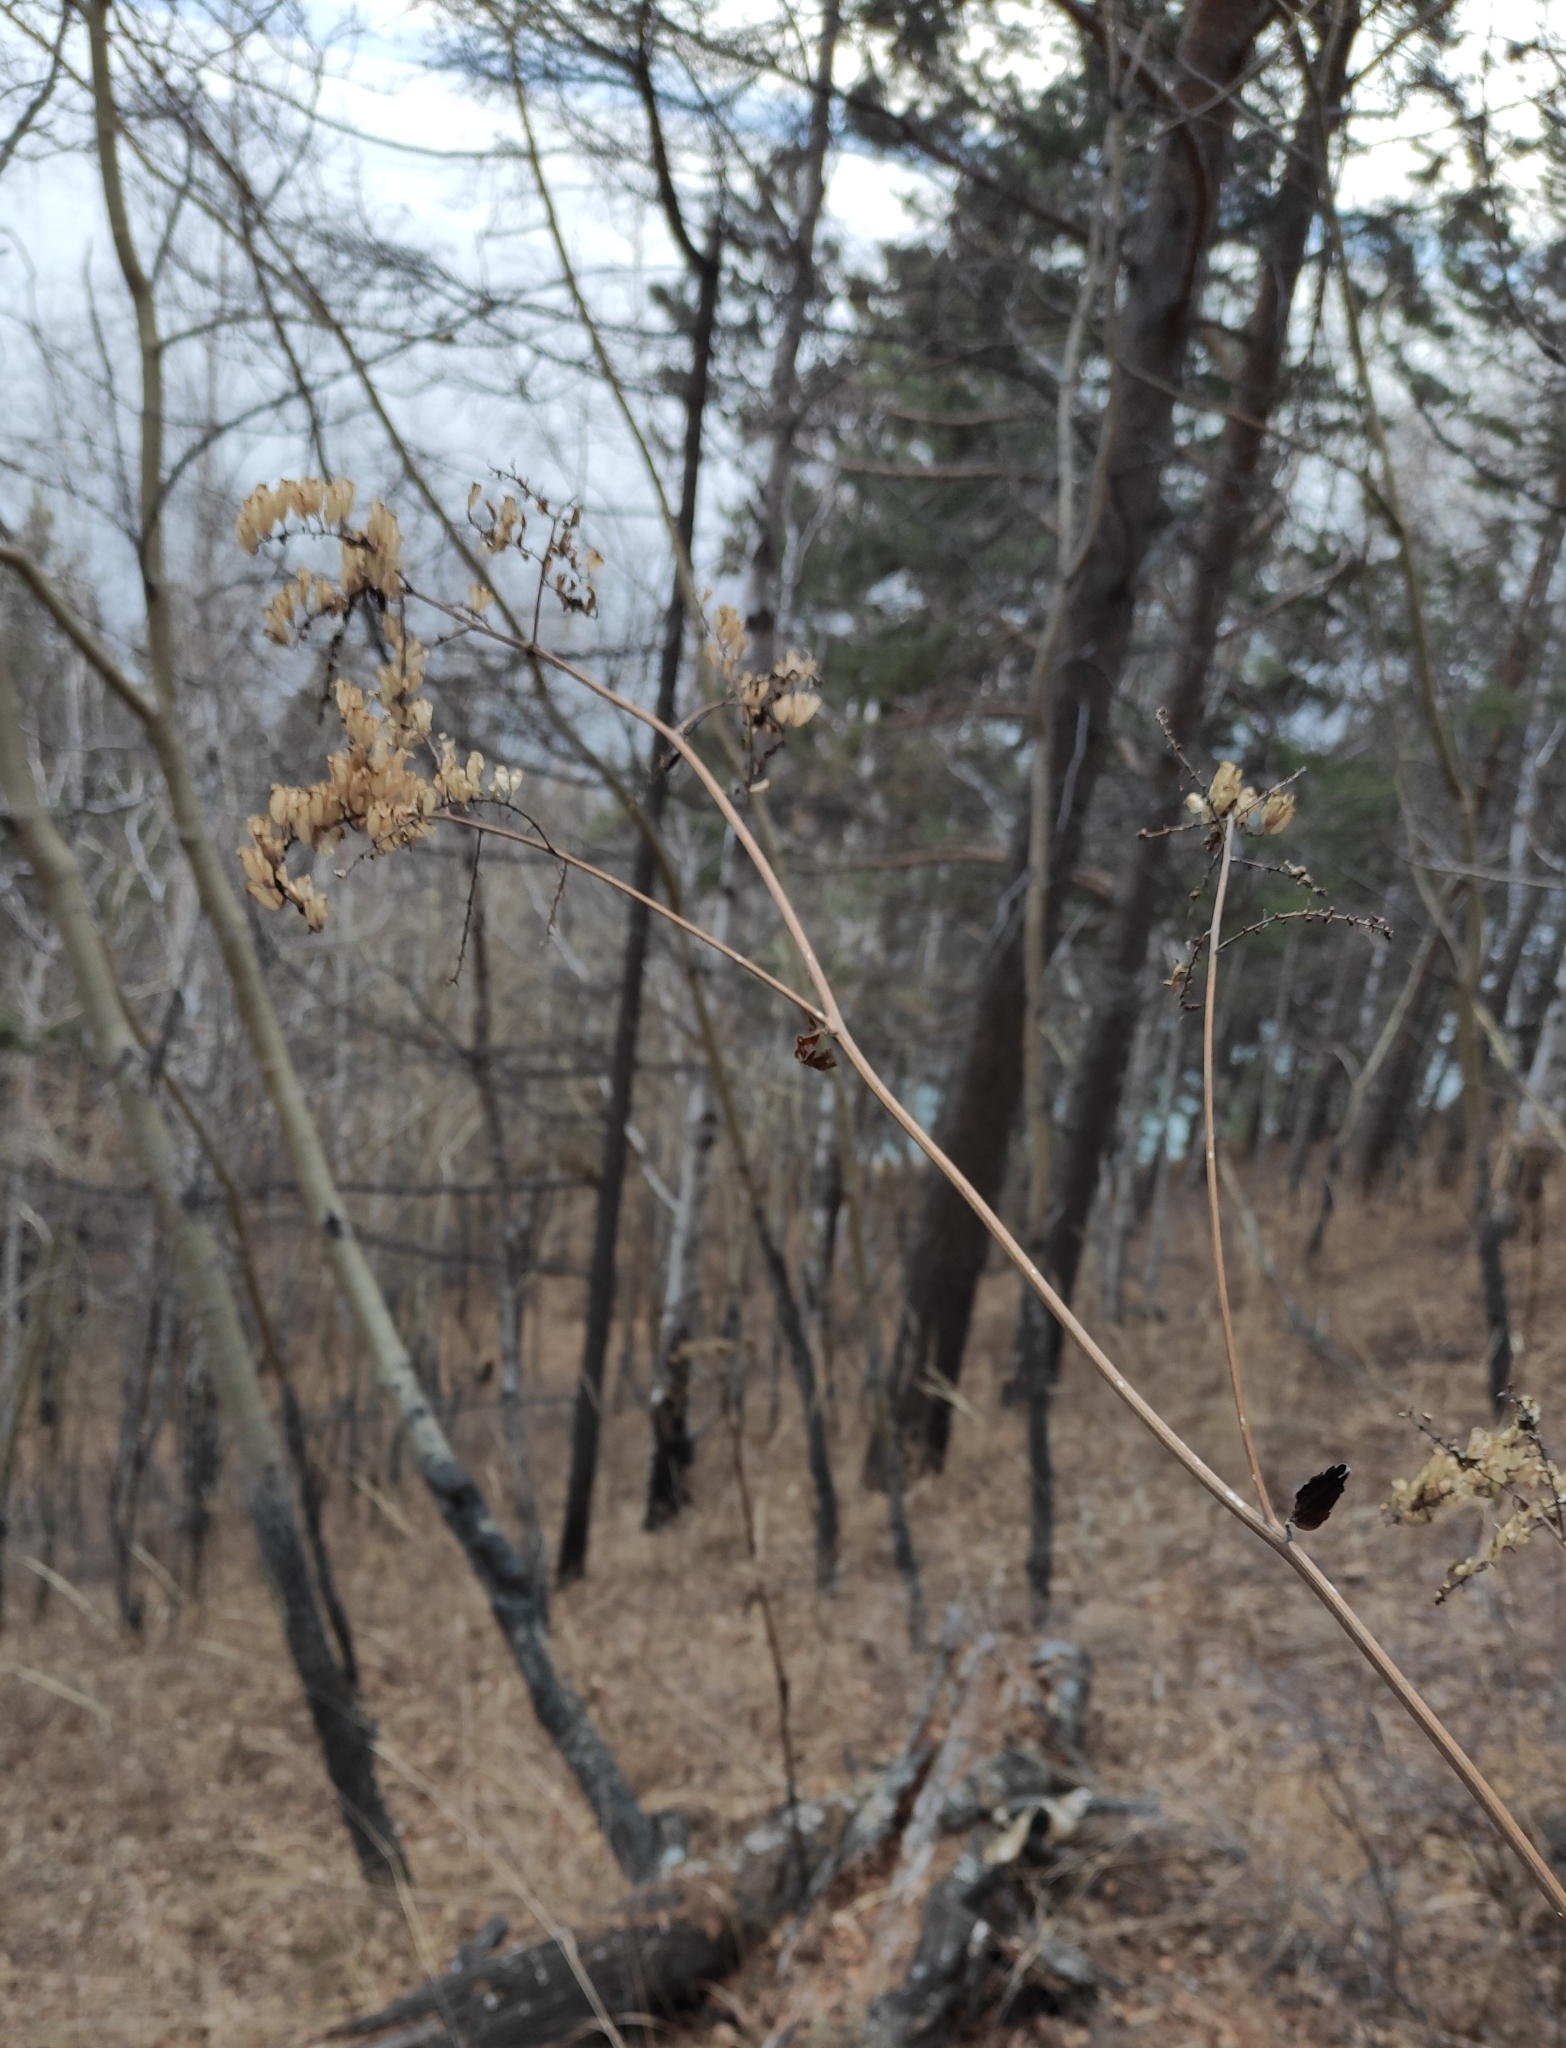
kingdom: Plantae
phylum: Tracheophyta
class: Magnoliopsida
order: Ranunculales
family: Ranunculaceae
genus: Actaea
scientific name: Actaea cimicifuga
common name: Chinese cimicifuga
